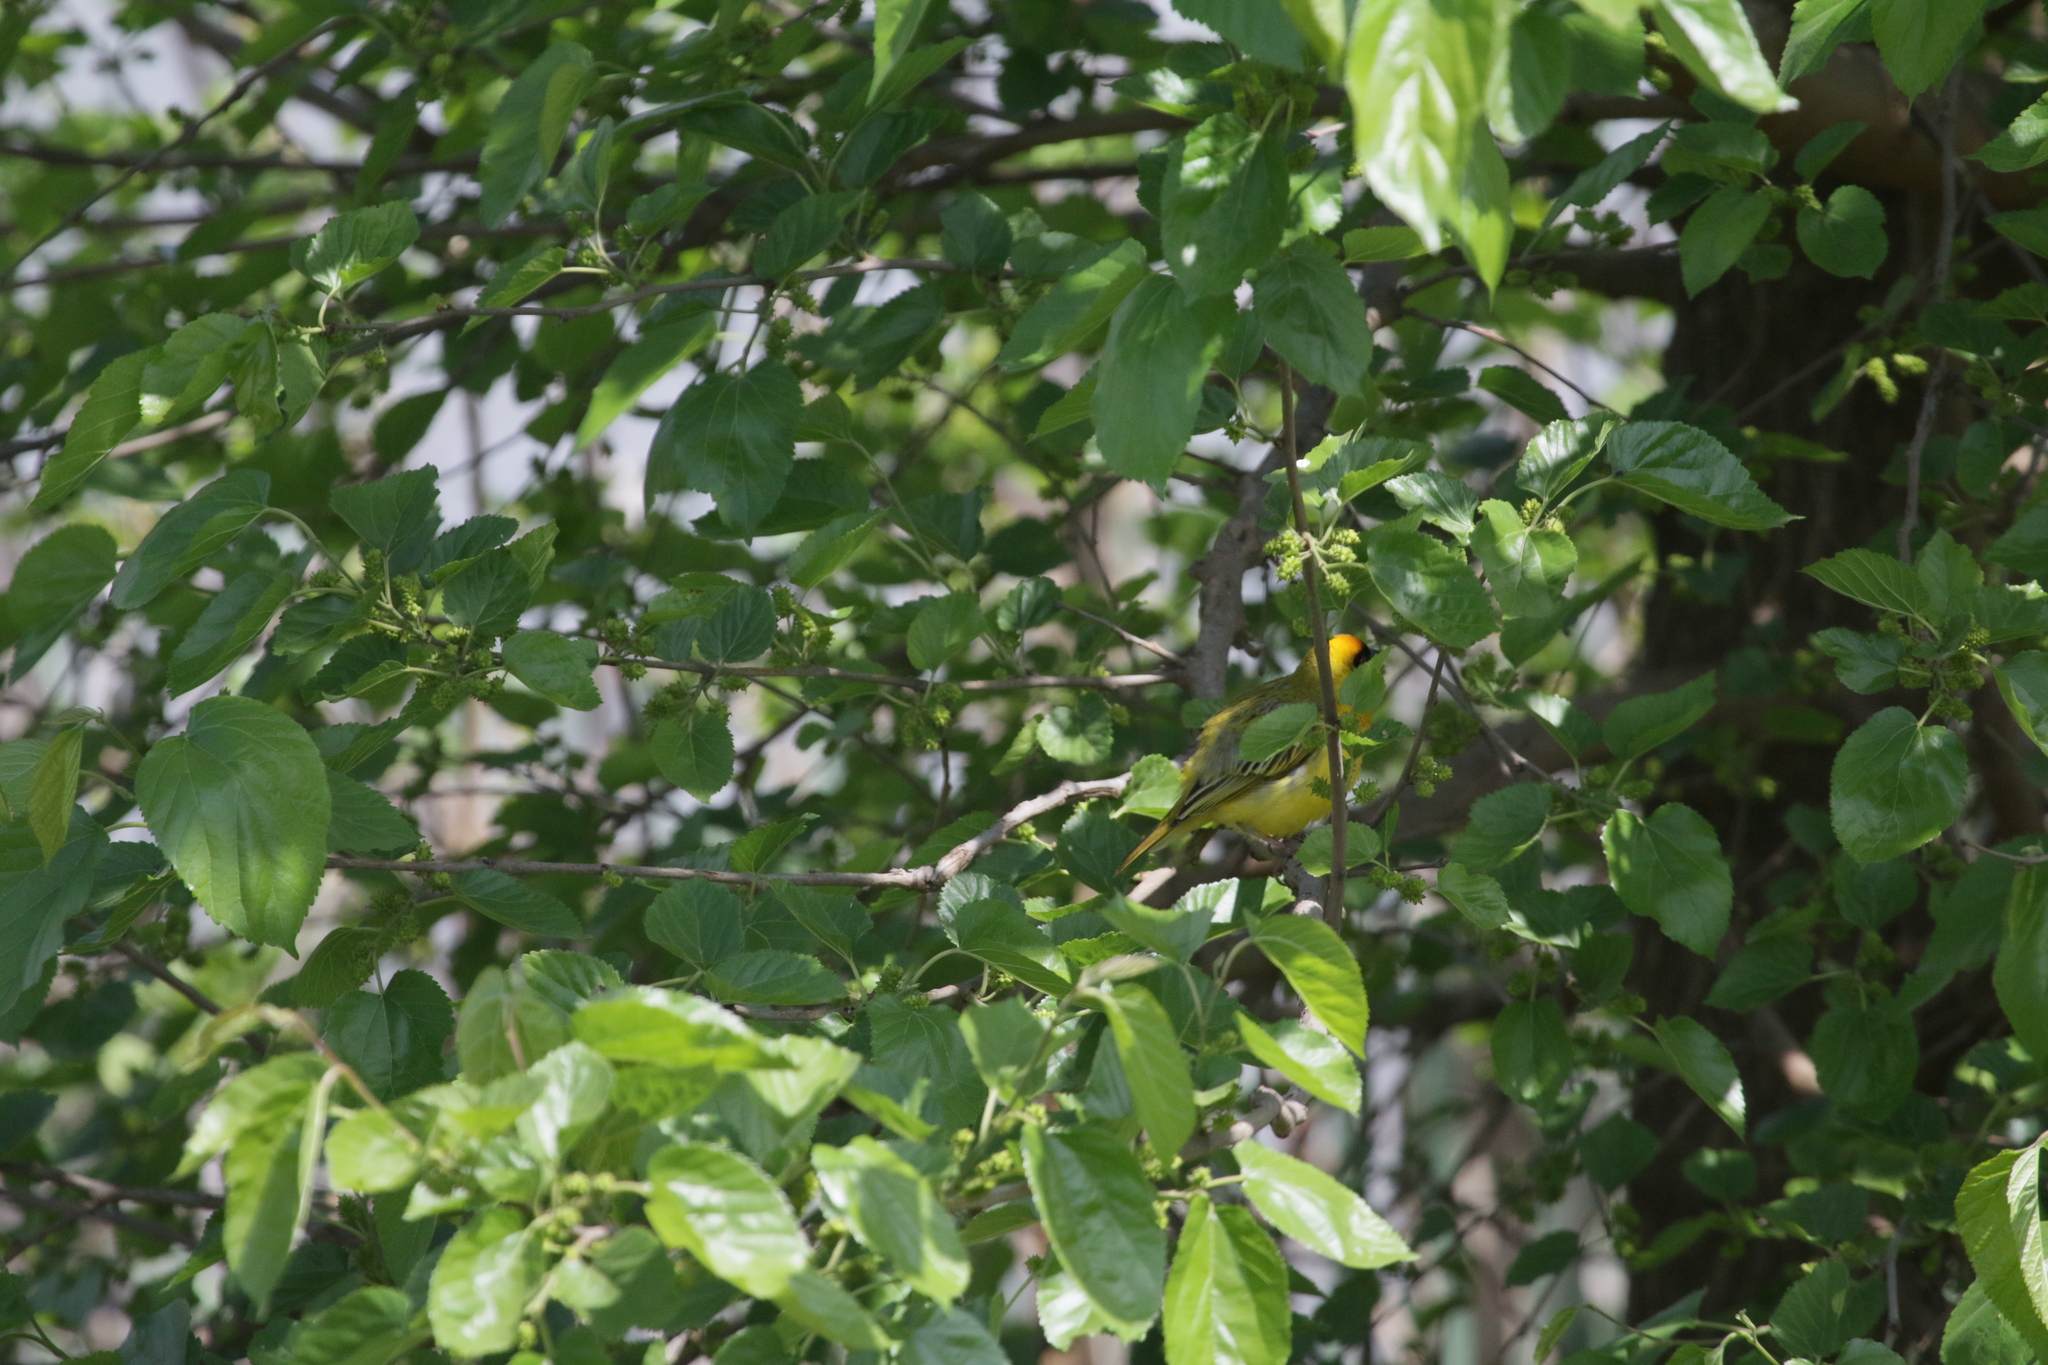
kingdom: Animalia
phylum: Chordata
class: Aves
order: Passeriformes
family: Ploceidae
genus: Ploceus
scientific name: Ploceus velatus
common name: Southern masked weaver
